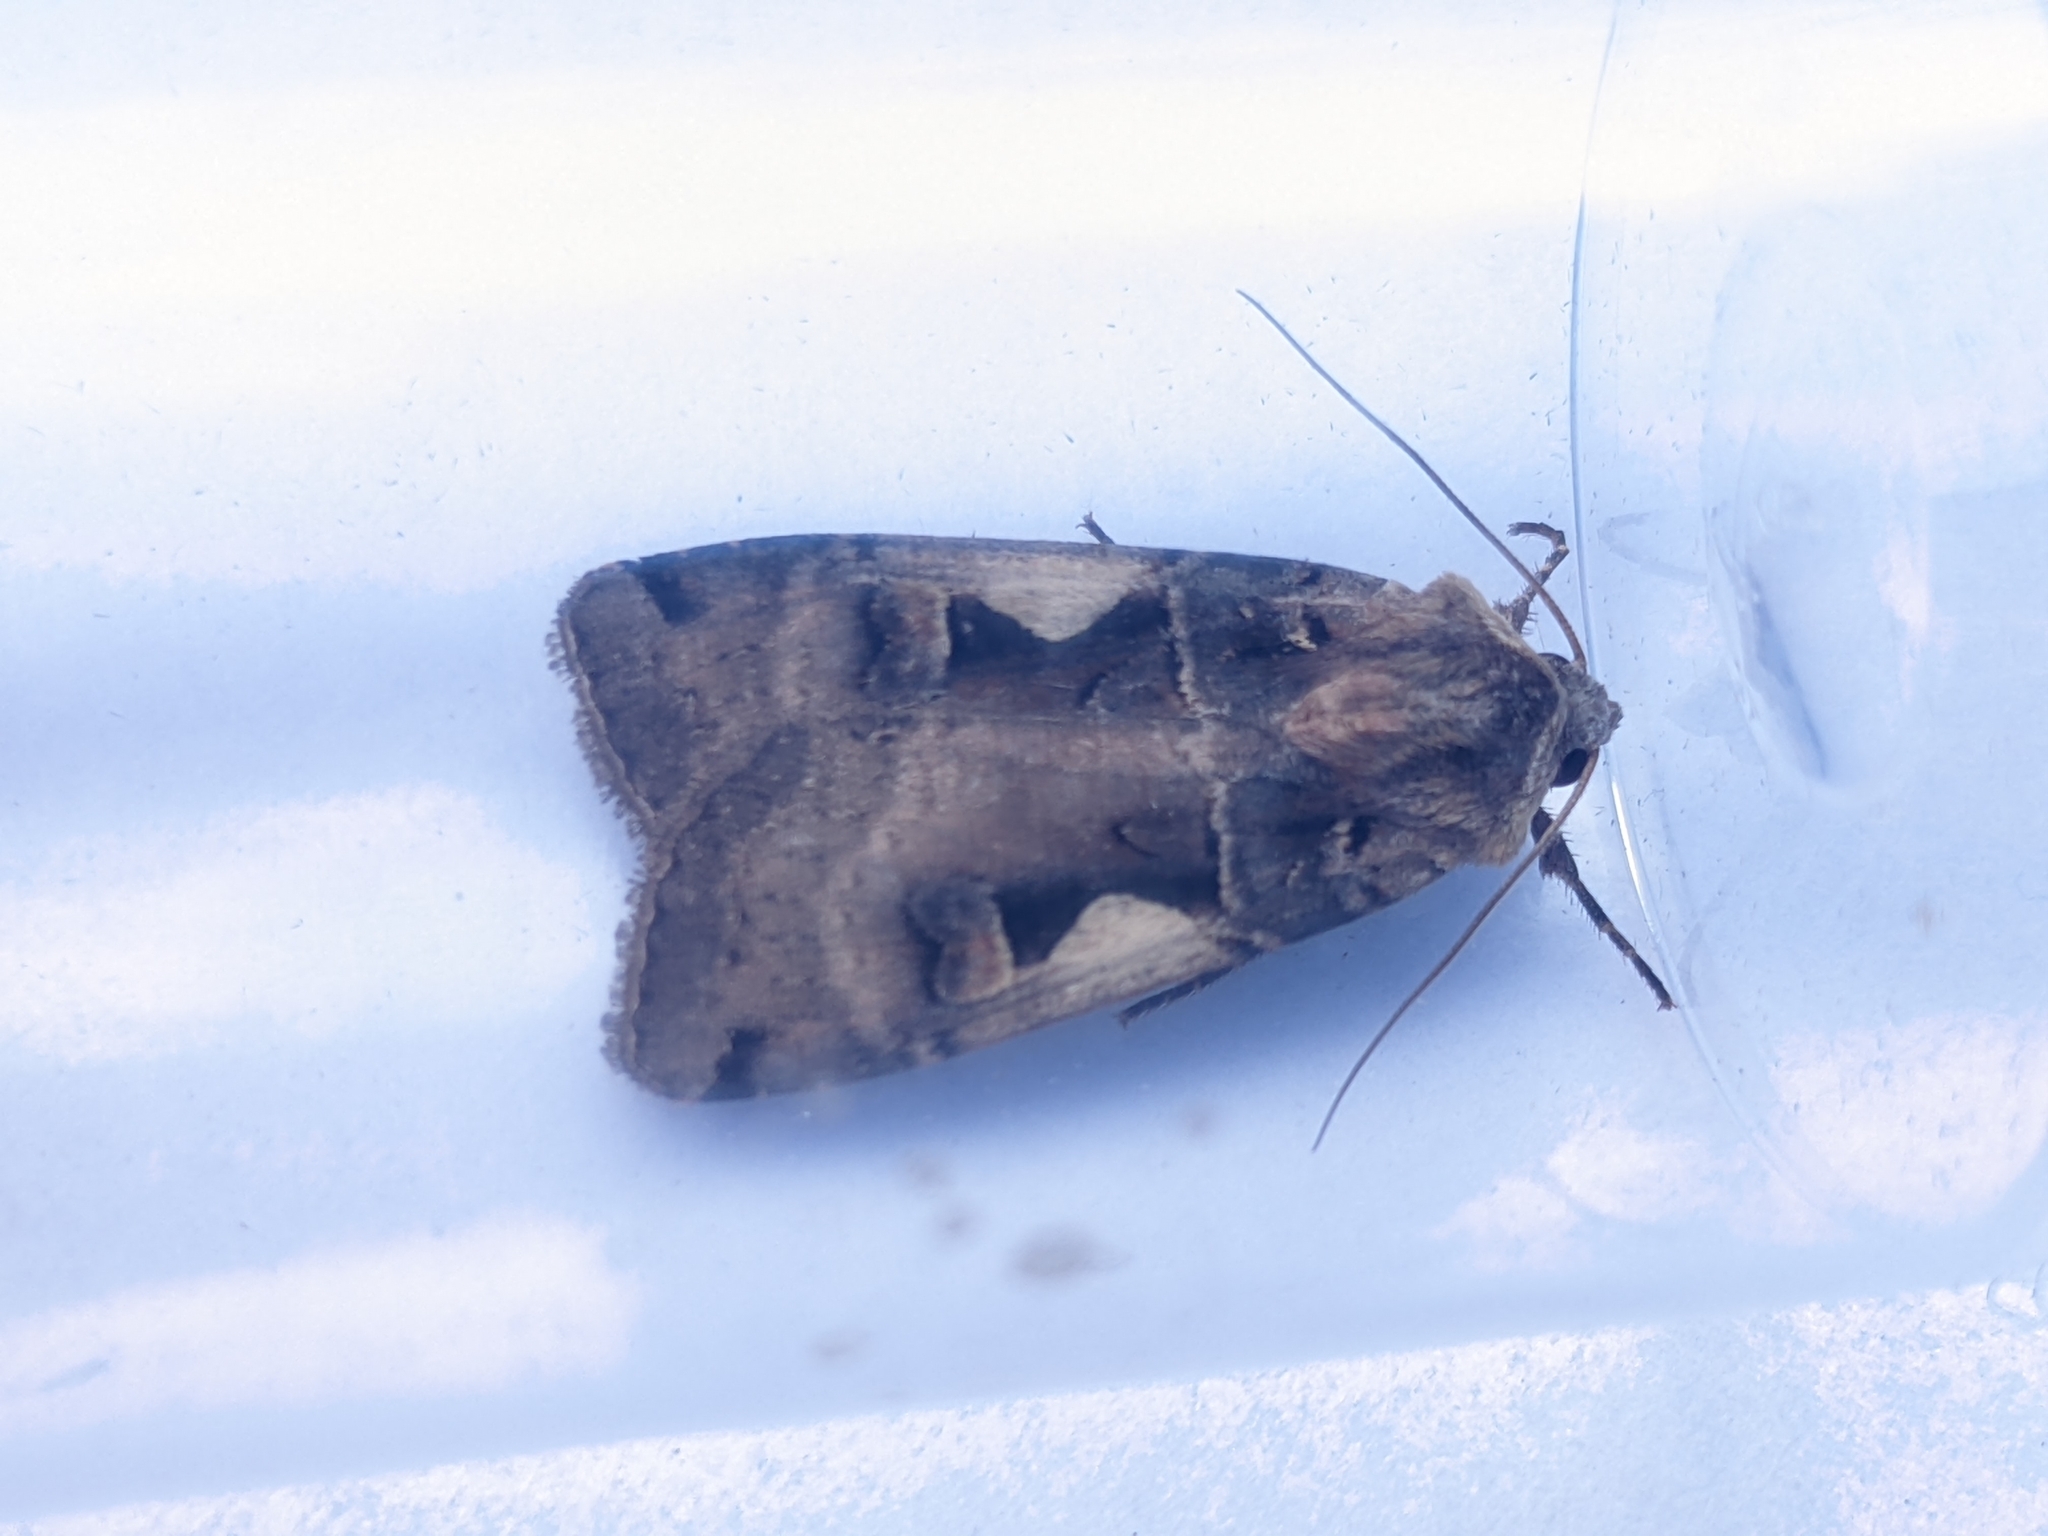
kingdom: Animalia
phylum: Arthropoda
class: Insecta
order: Lepidoptera
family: Noctuidae
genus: Xestia
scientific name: Xestia c-nigrum
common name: Setaceous hebrew character
